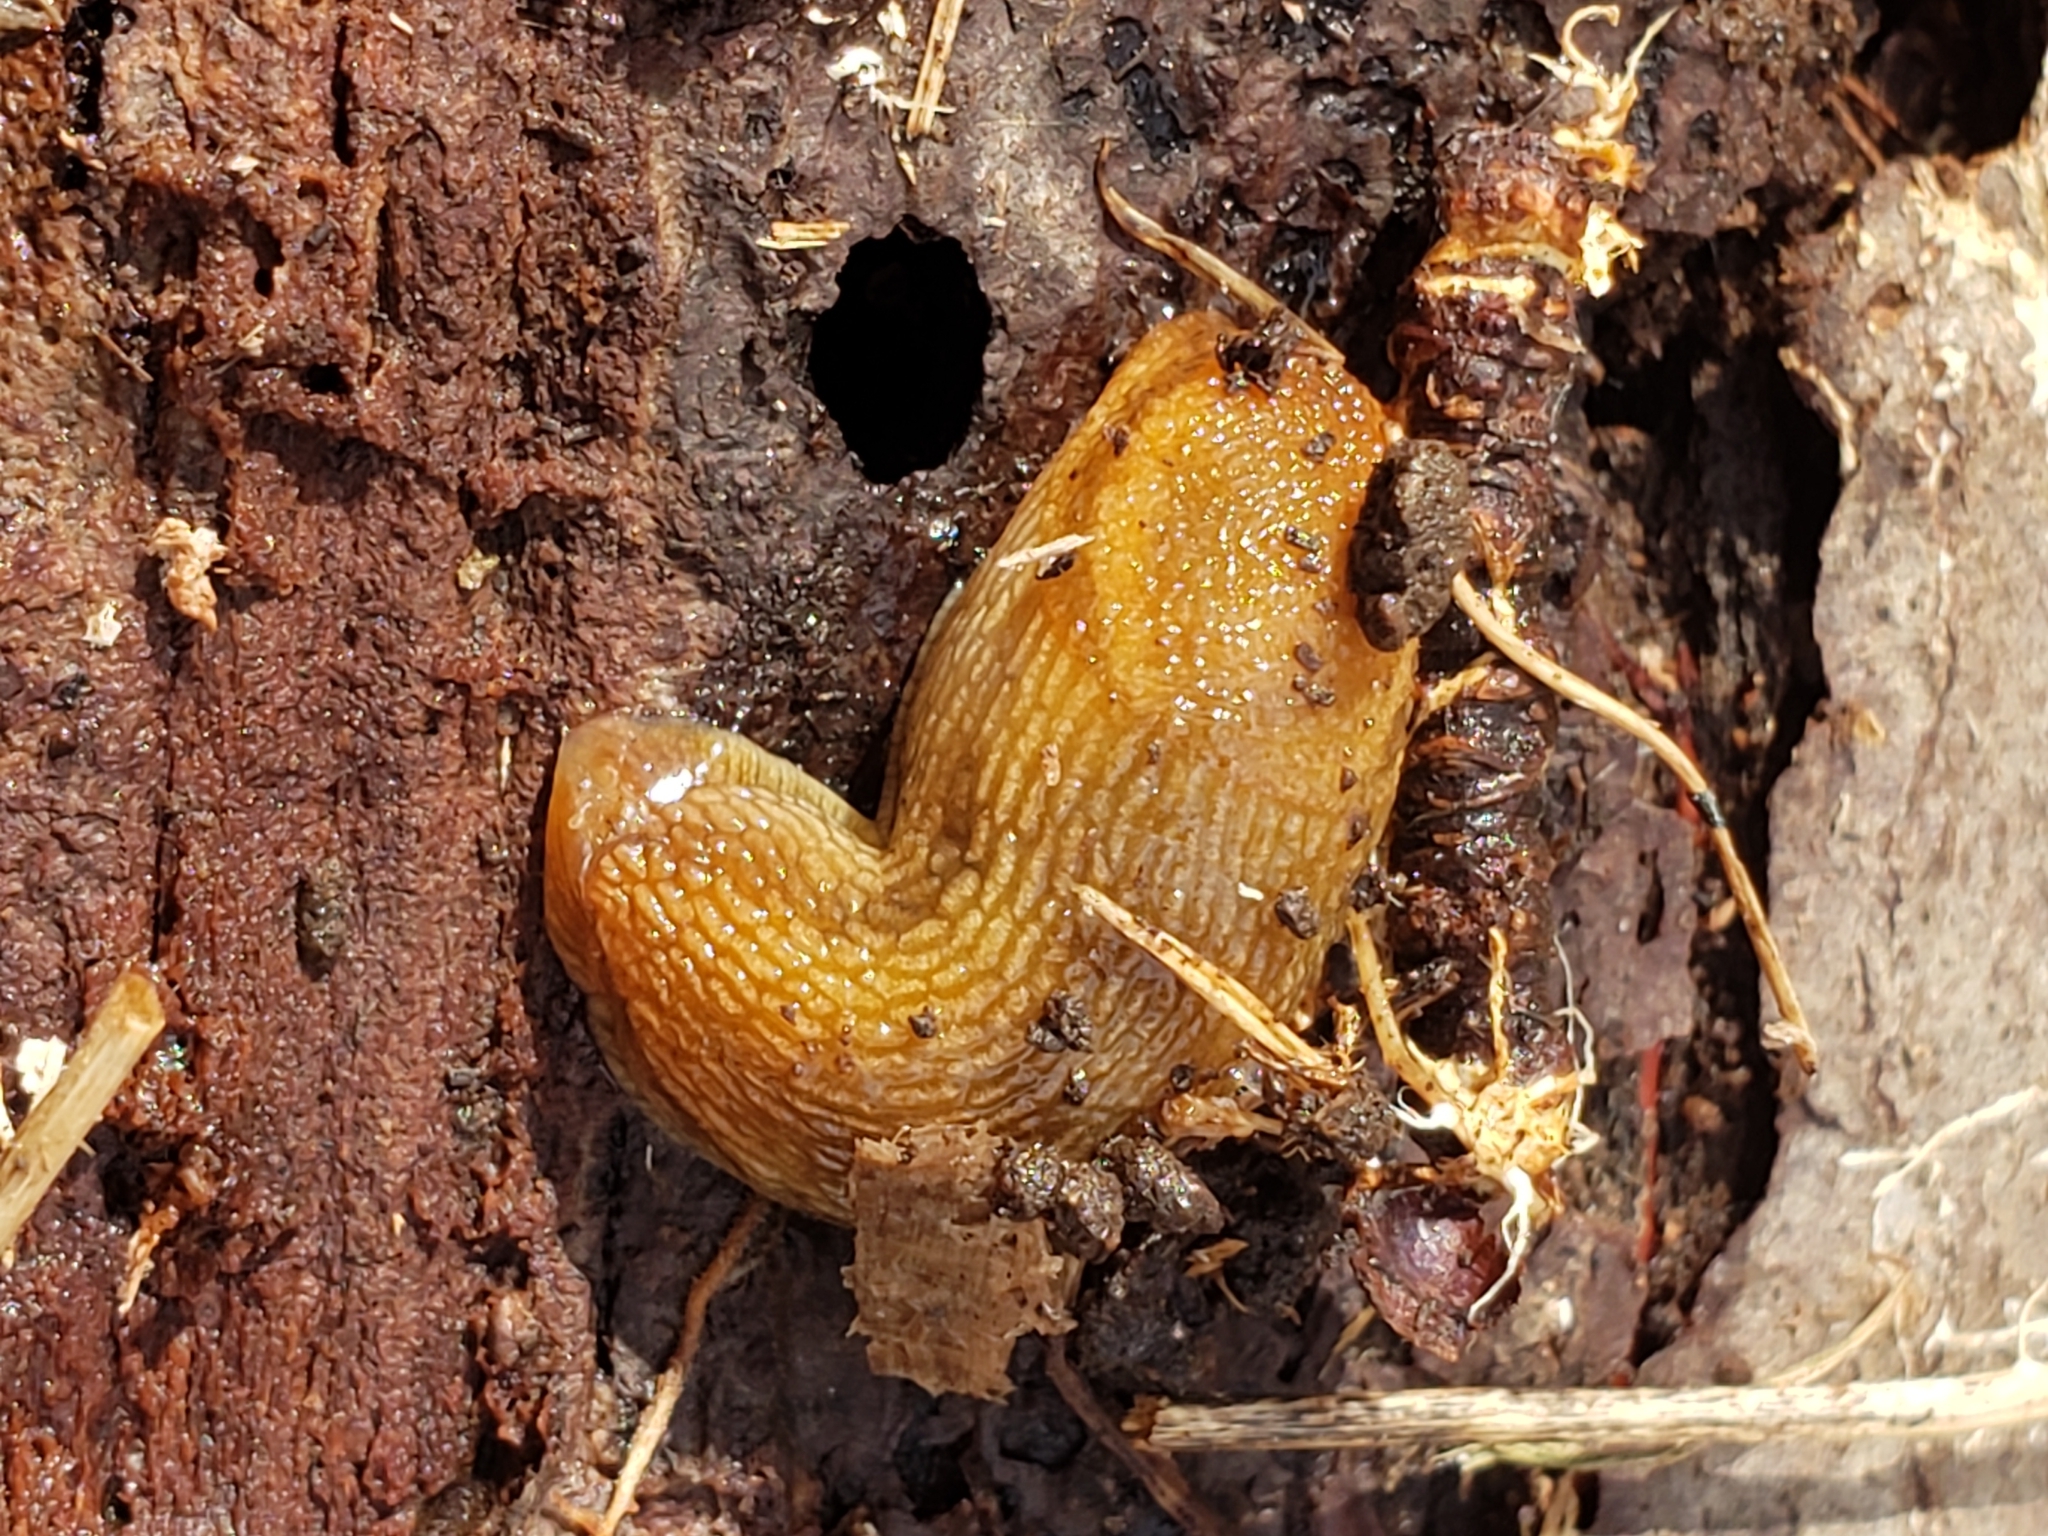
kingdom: Animalia
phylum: Mollusca
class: Gastropoda
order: Stylommatophora
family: Arionidae
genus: Arion
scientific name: Arion subfuscus
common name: Dusky arion
